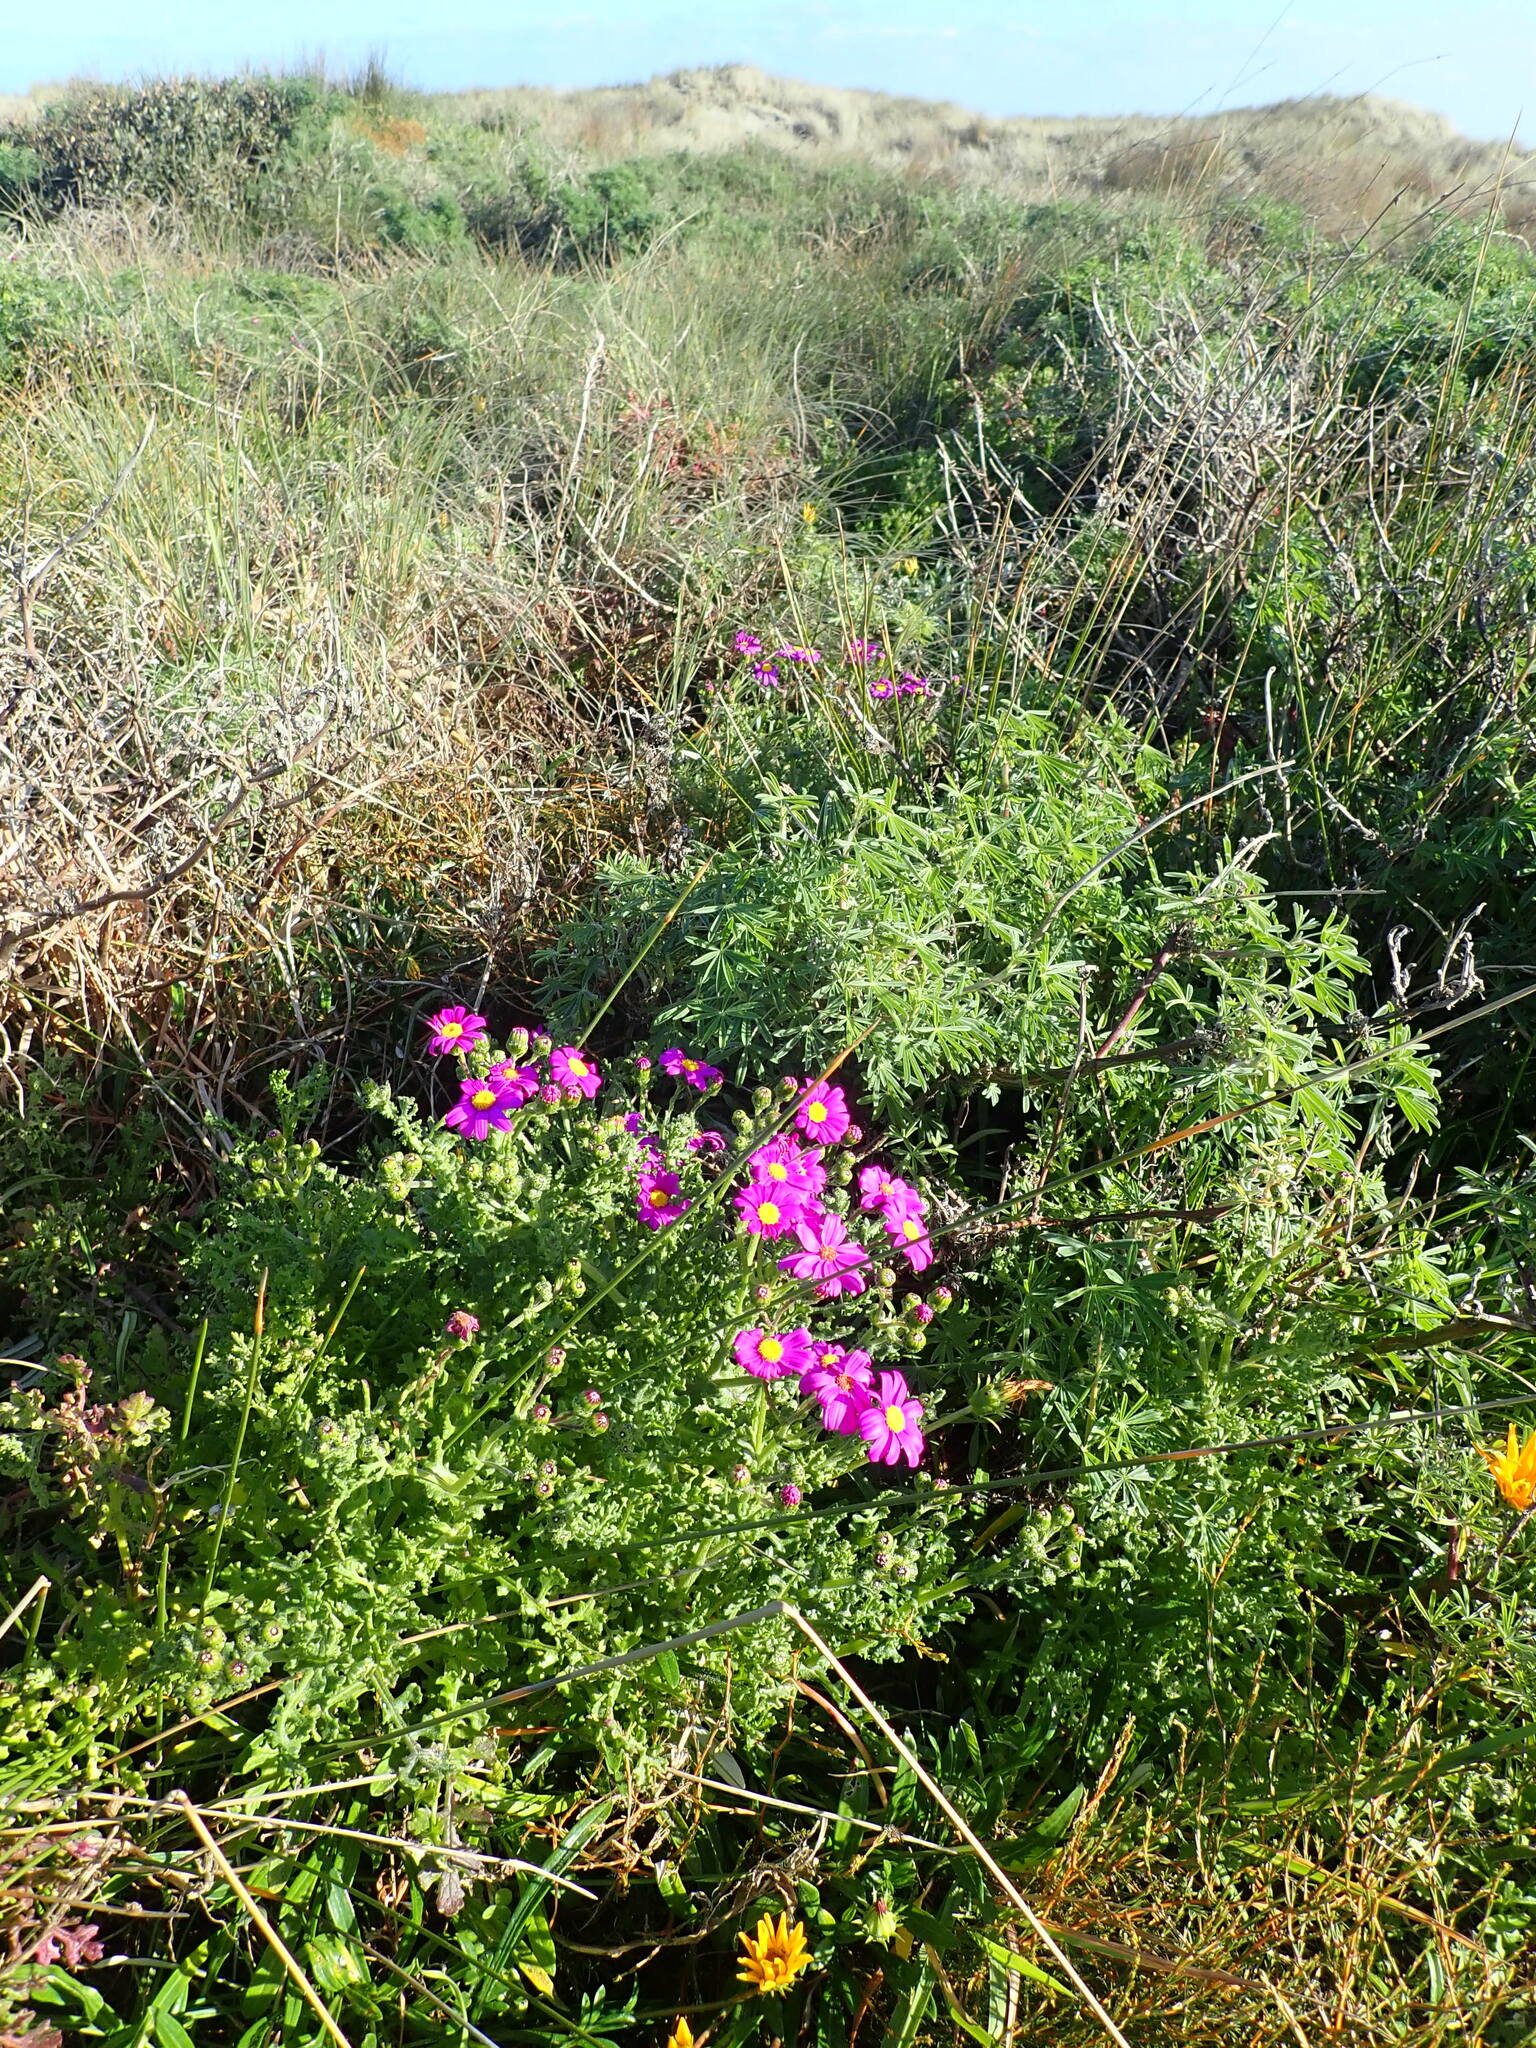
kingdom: Plantae
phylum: Tracheophyta
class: Magnoliopsida
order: Asterales
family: Asteraceae
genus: Senecio
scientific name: Senecio elegans
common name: Purple groundsel
